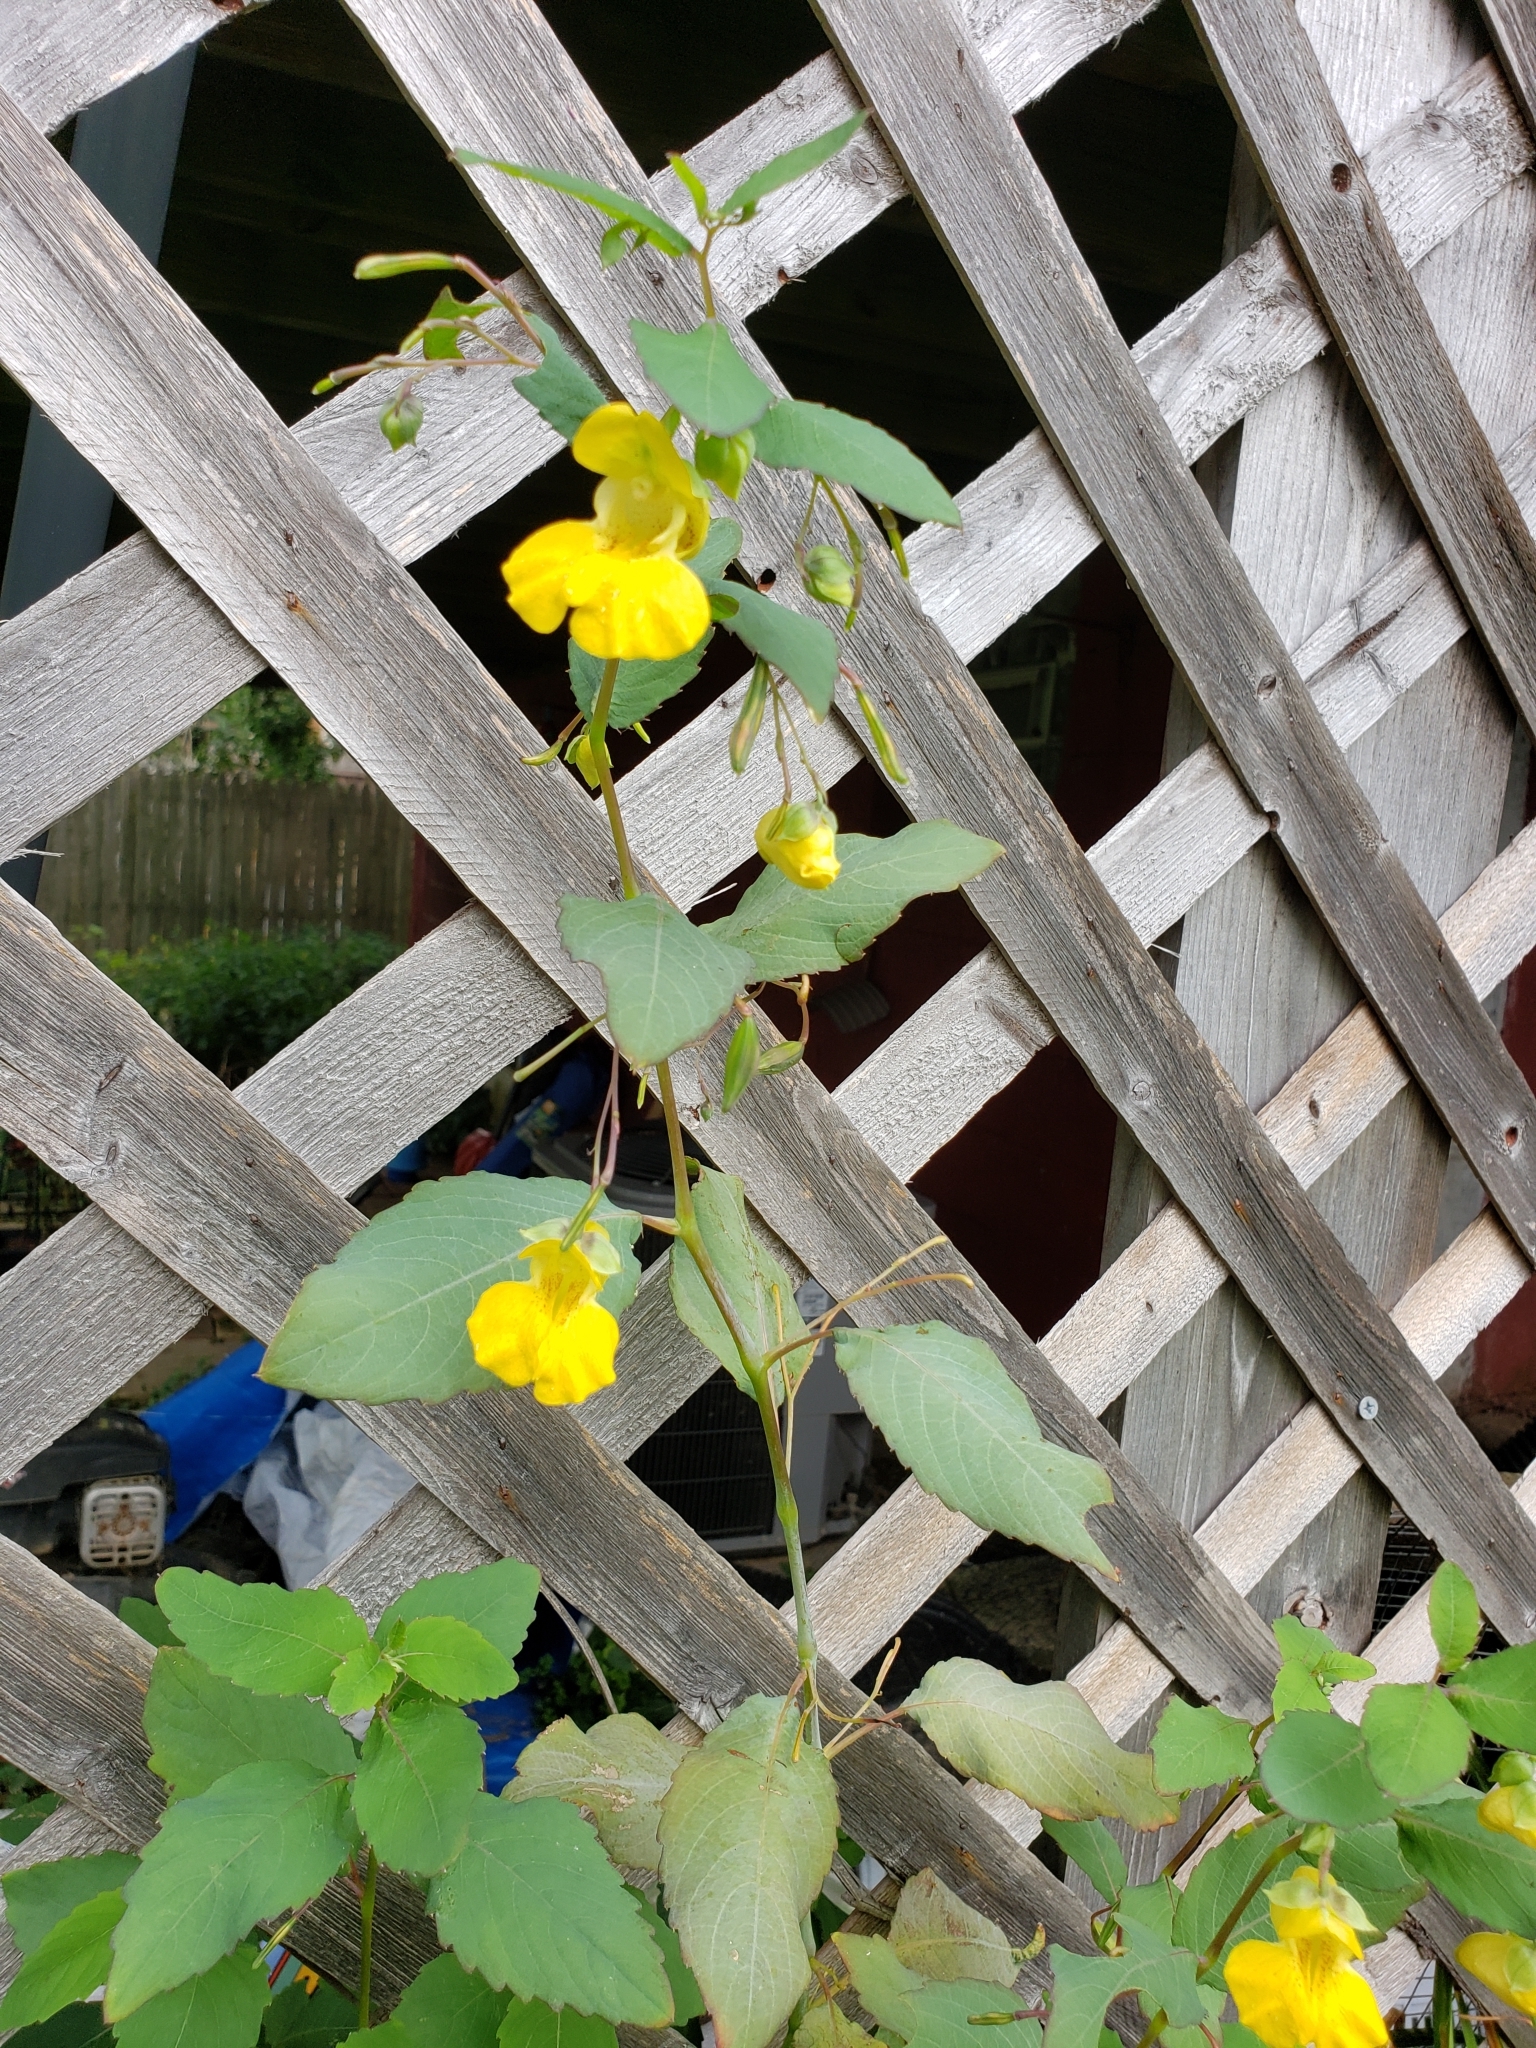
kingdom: Plantae
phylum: Tracheophyta
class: Magnoliopsida
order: Ericales
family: Balsaminaceae
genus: Impatiens
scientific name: Impatiens pallida
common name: Pale snapweed
